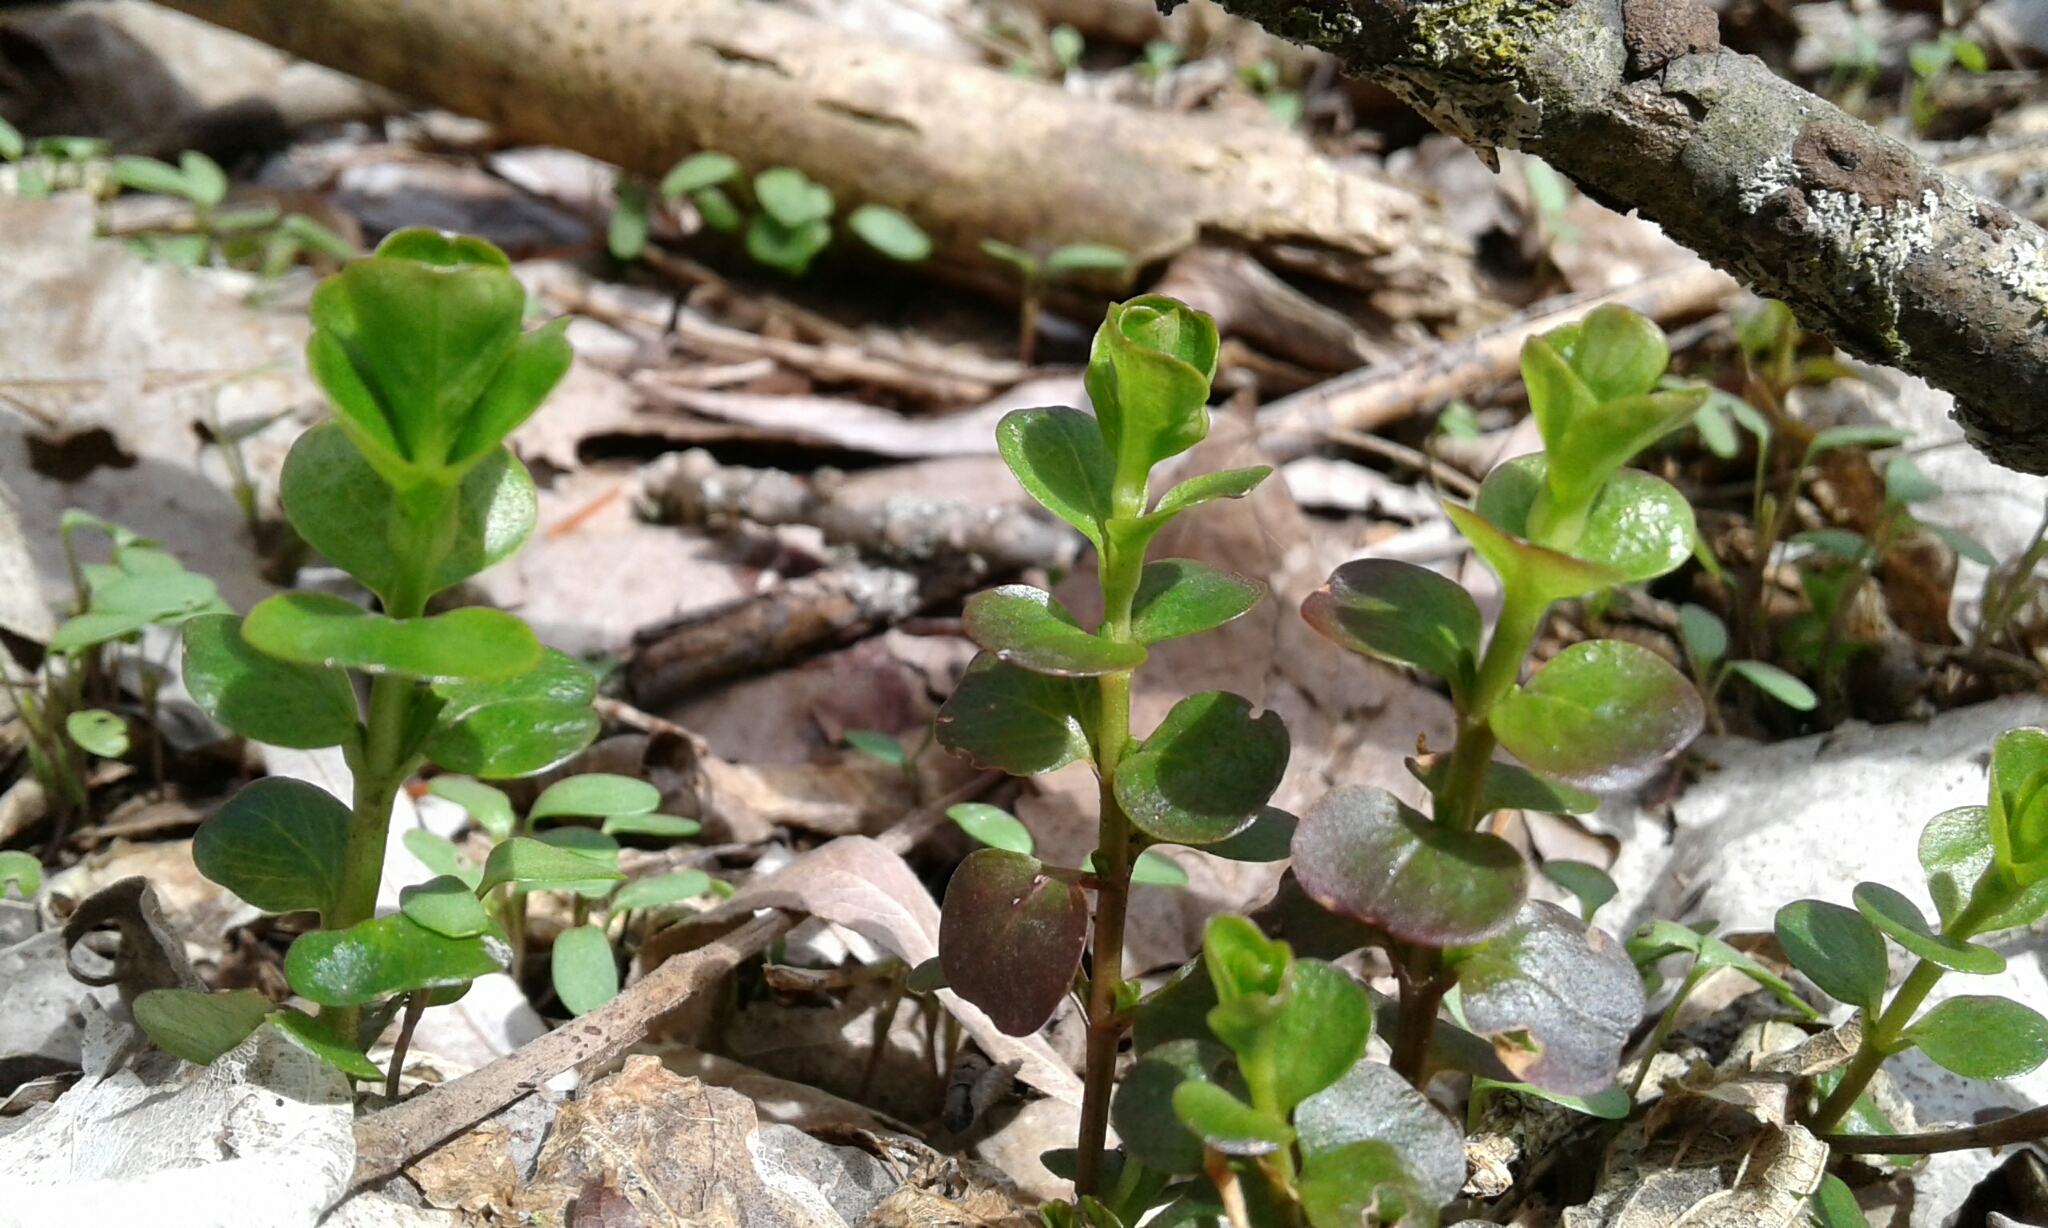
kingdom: Plantae
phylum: Tracheophyta
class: Magnoliopsida
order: Ericales
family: Primulaceae
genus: Lysimachia
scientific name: Lysimachia nummularia
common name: Moneywort
